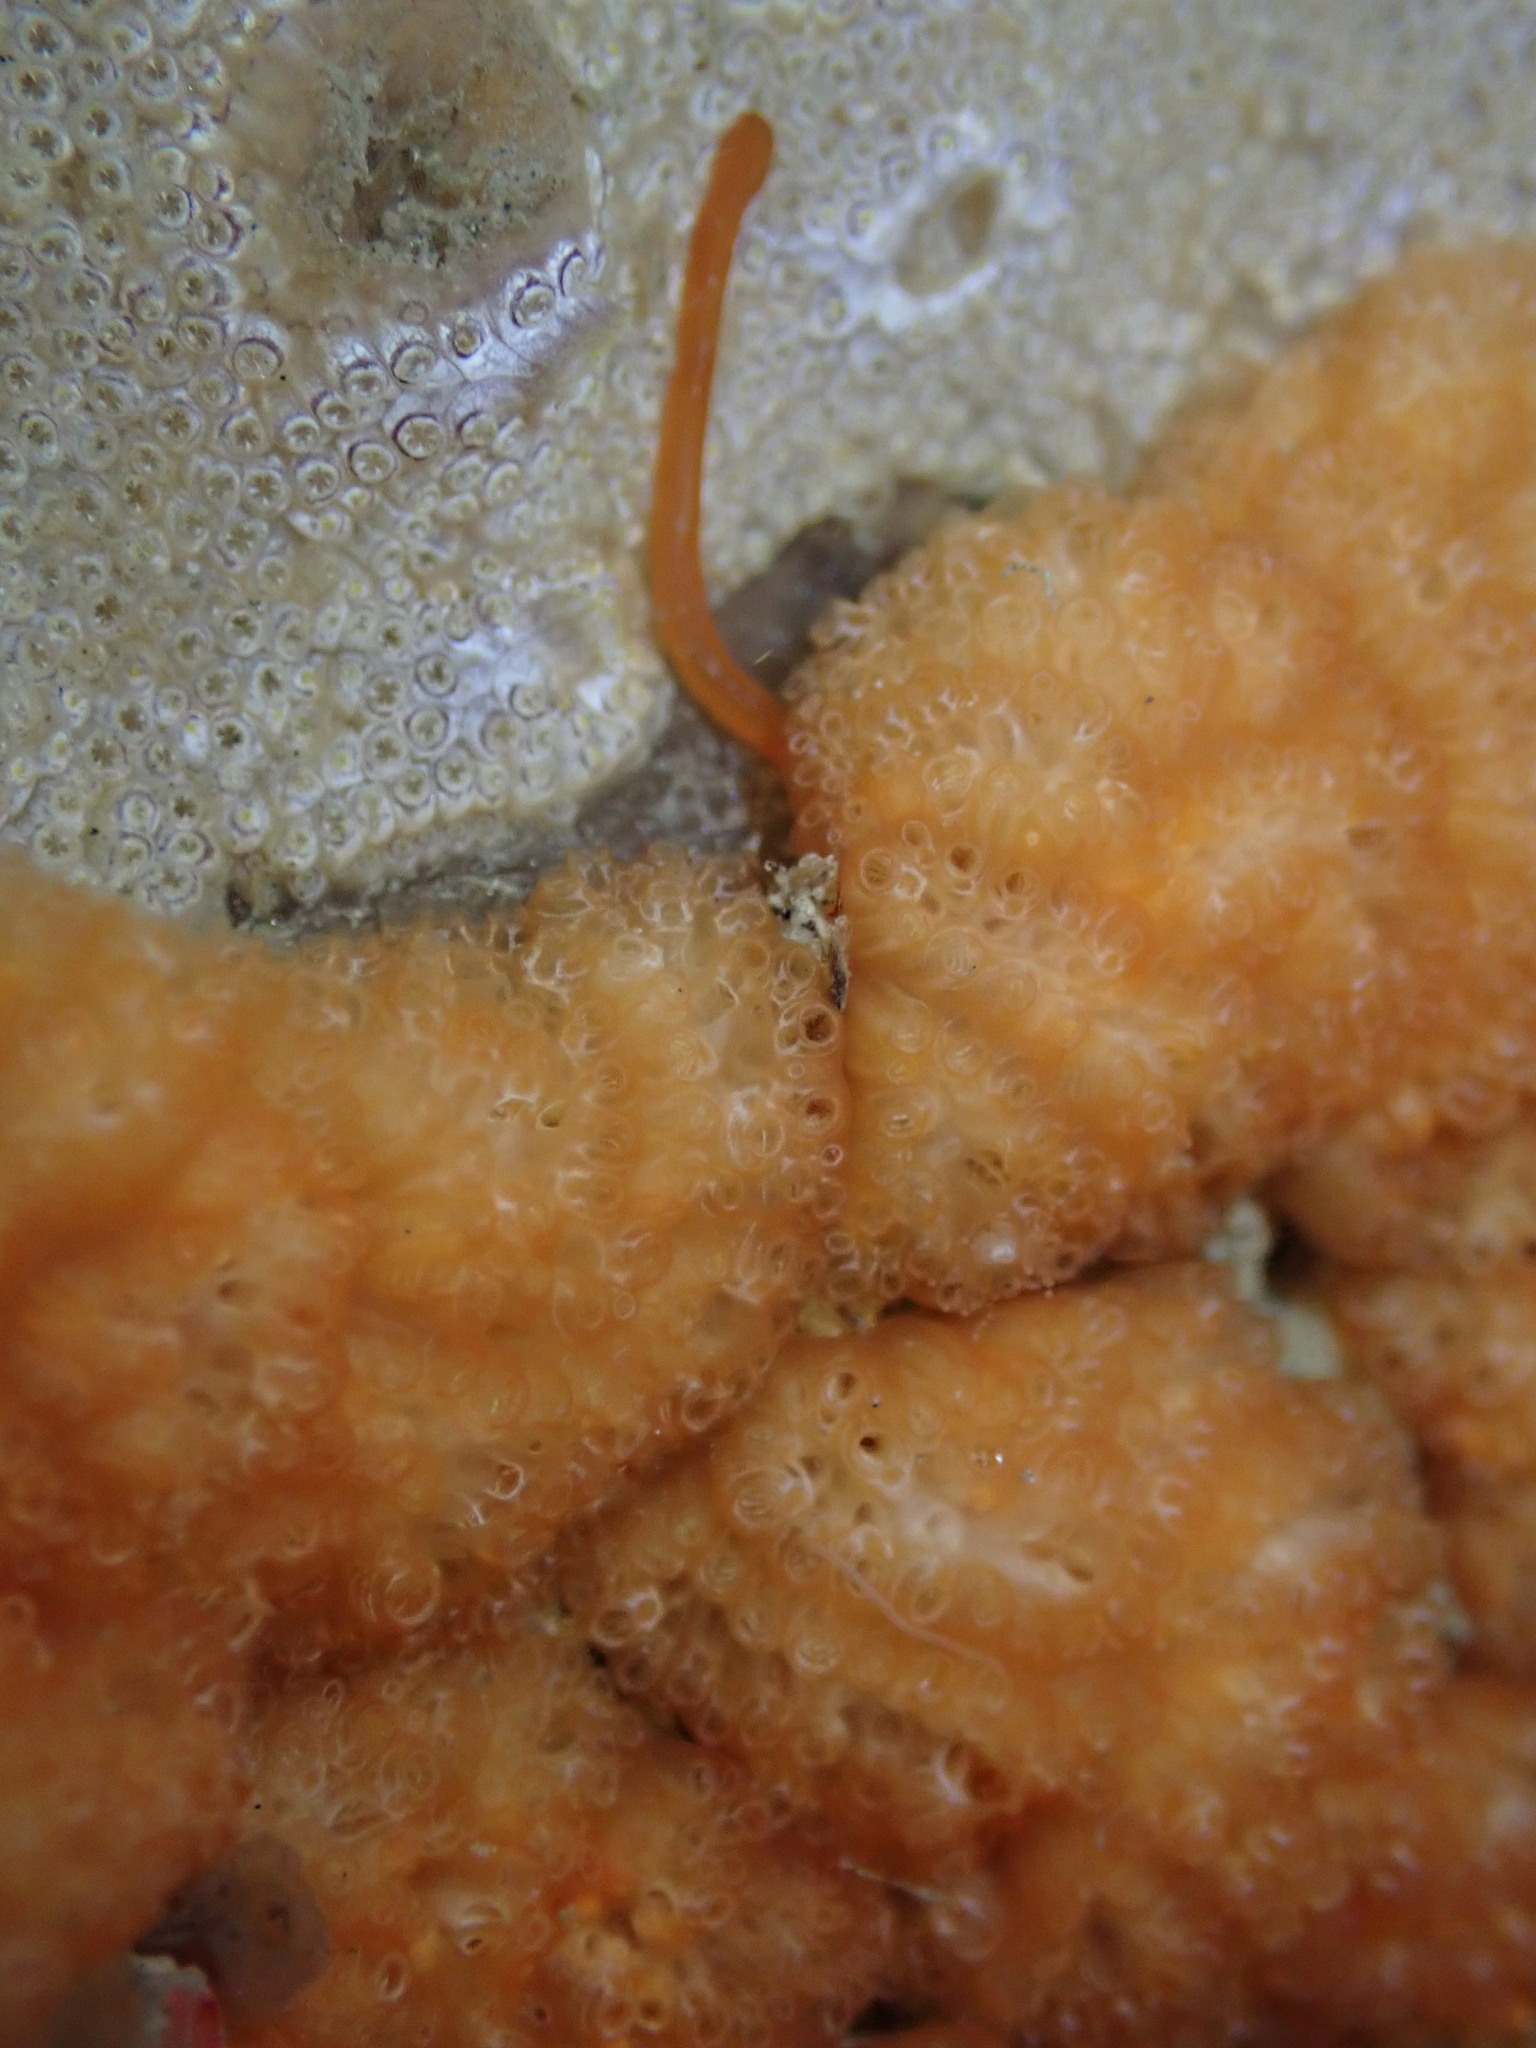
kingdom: Animalia
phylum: Hemichordata
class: Enteropneusta
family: Harrimaniidae
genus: Saccoglossus
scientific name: Saccoglossus otagoensis
